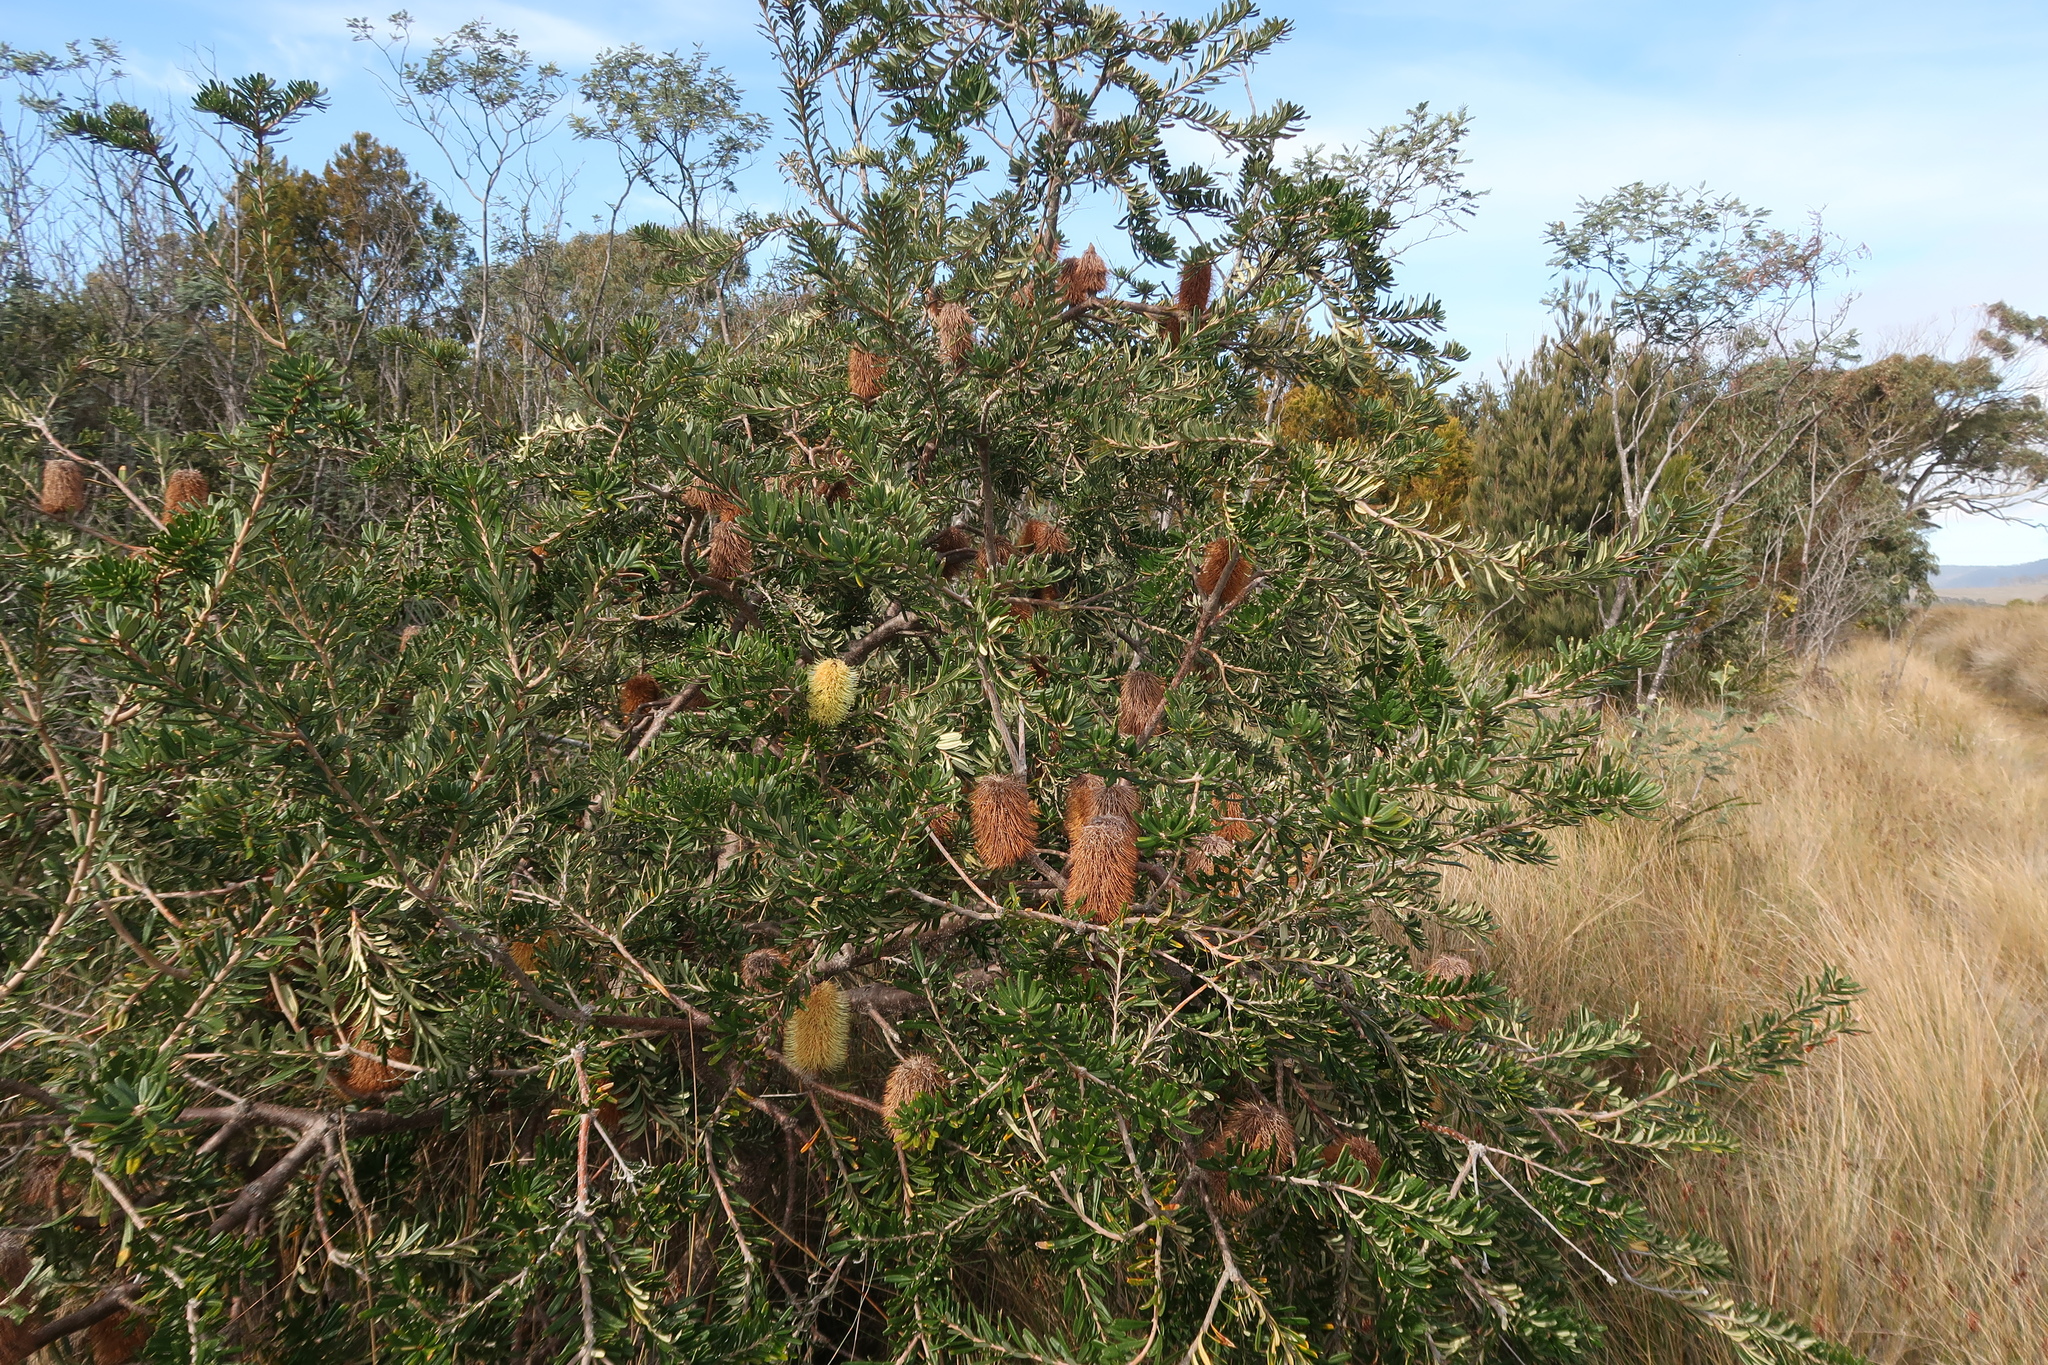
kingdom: Plantae
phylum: Tracheophyta
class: Magnoliopsida
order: Proteales
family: Proteaceae
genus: Banksia
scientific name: Banksia marginata
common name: Silver banksia
